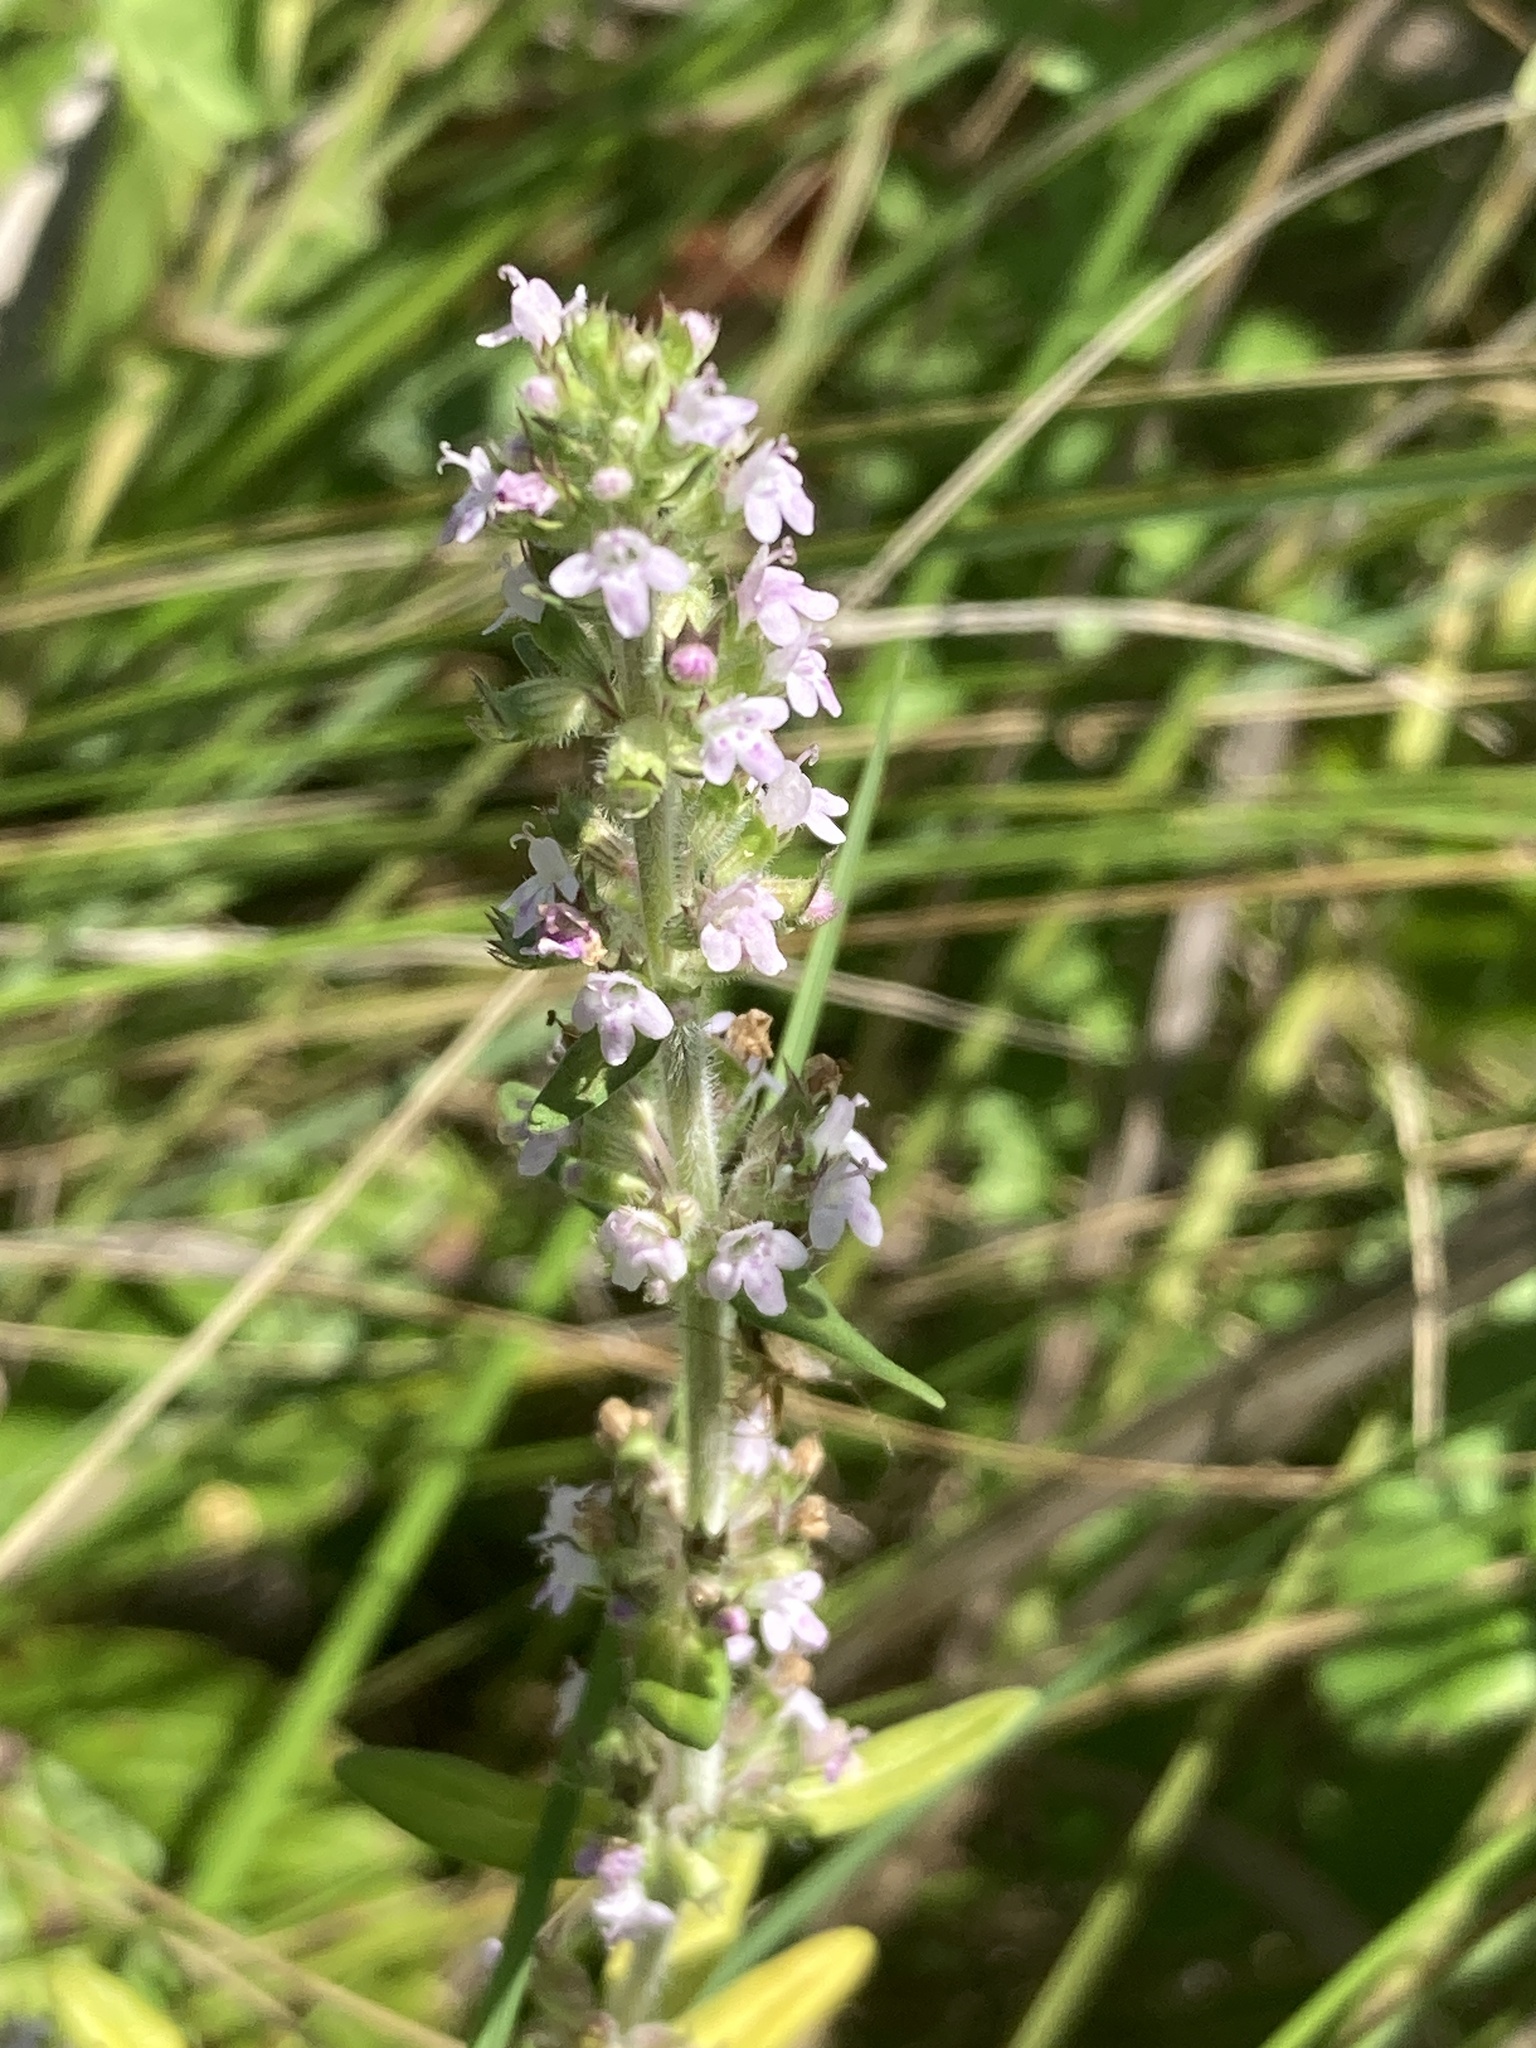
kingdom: Plantae
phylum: Tracheophyta
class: Magnoliopsida
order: Lamiales
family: Lamiaceae
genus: Thymus
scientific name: Thymus pannonicus
